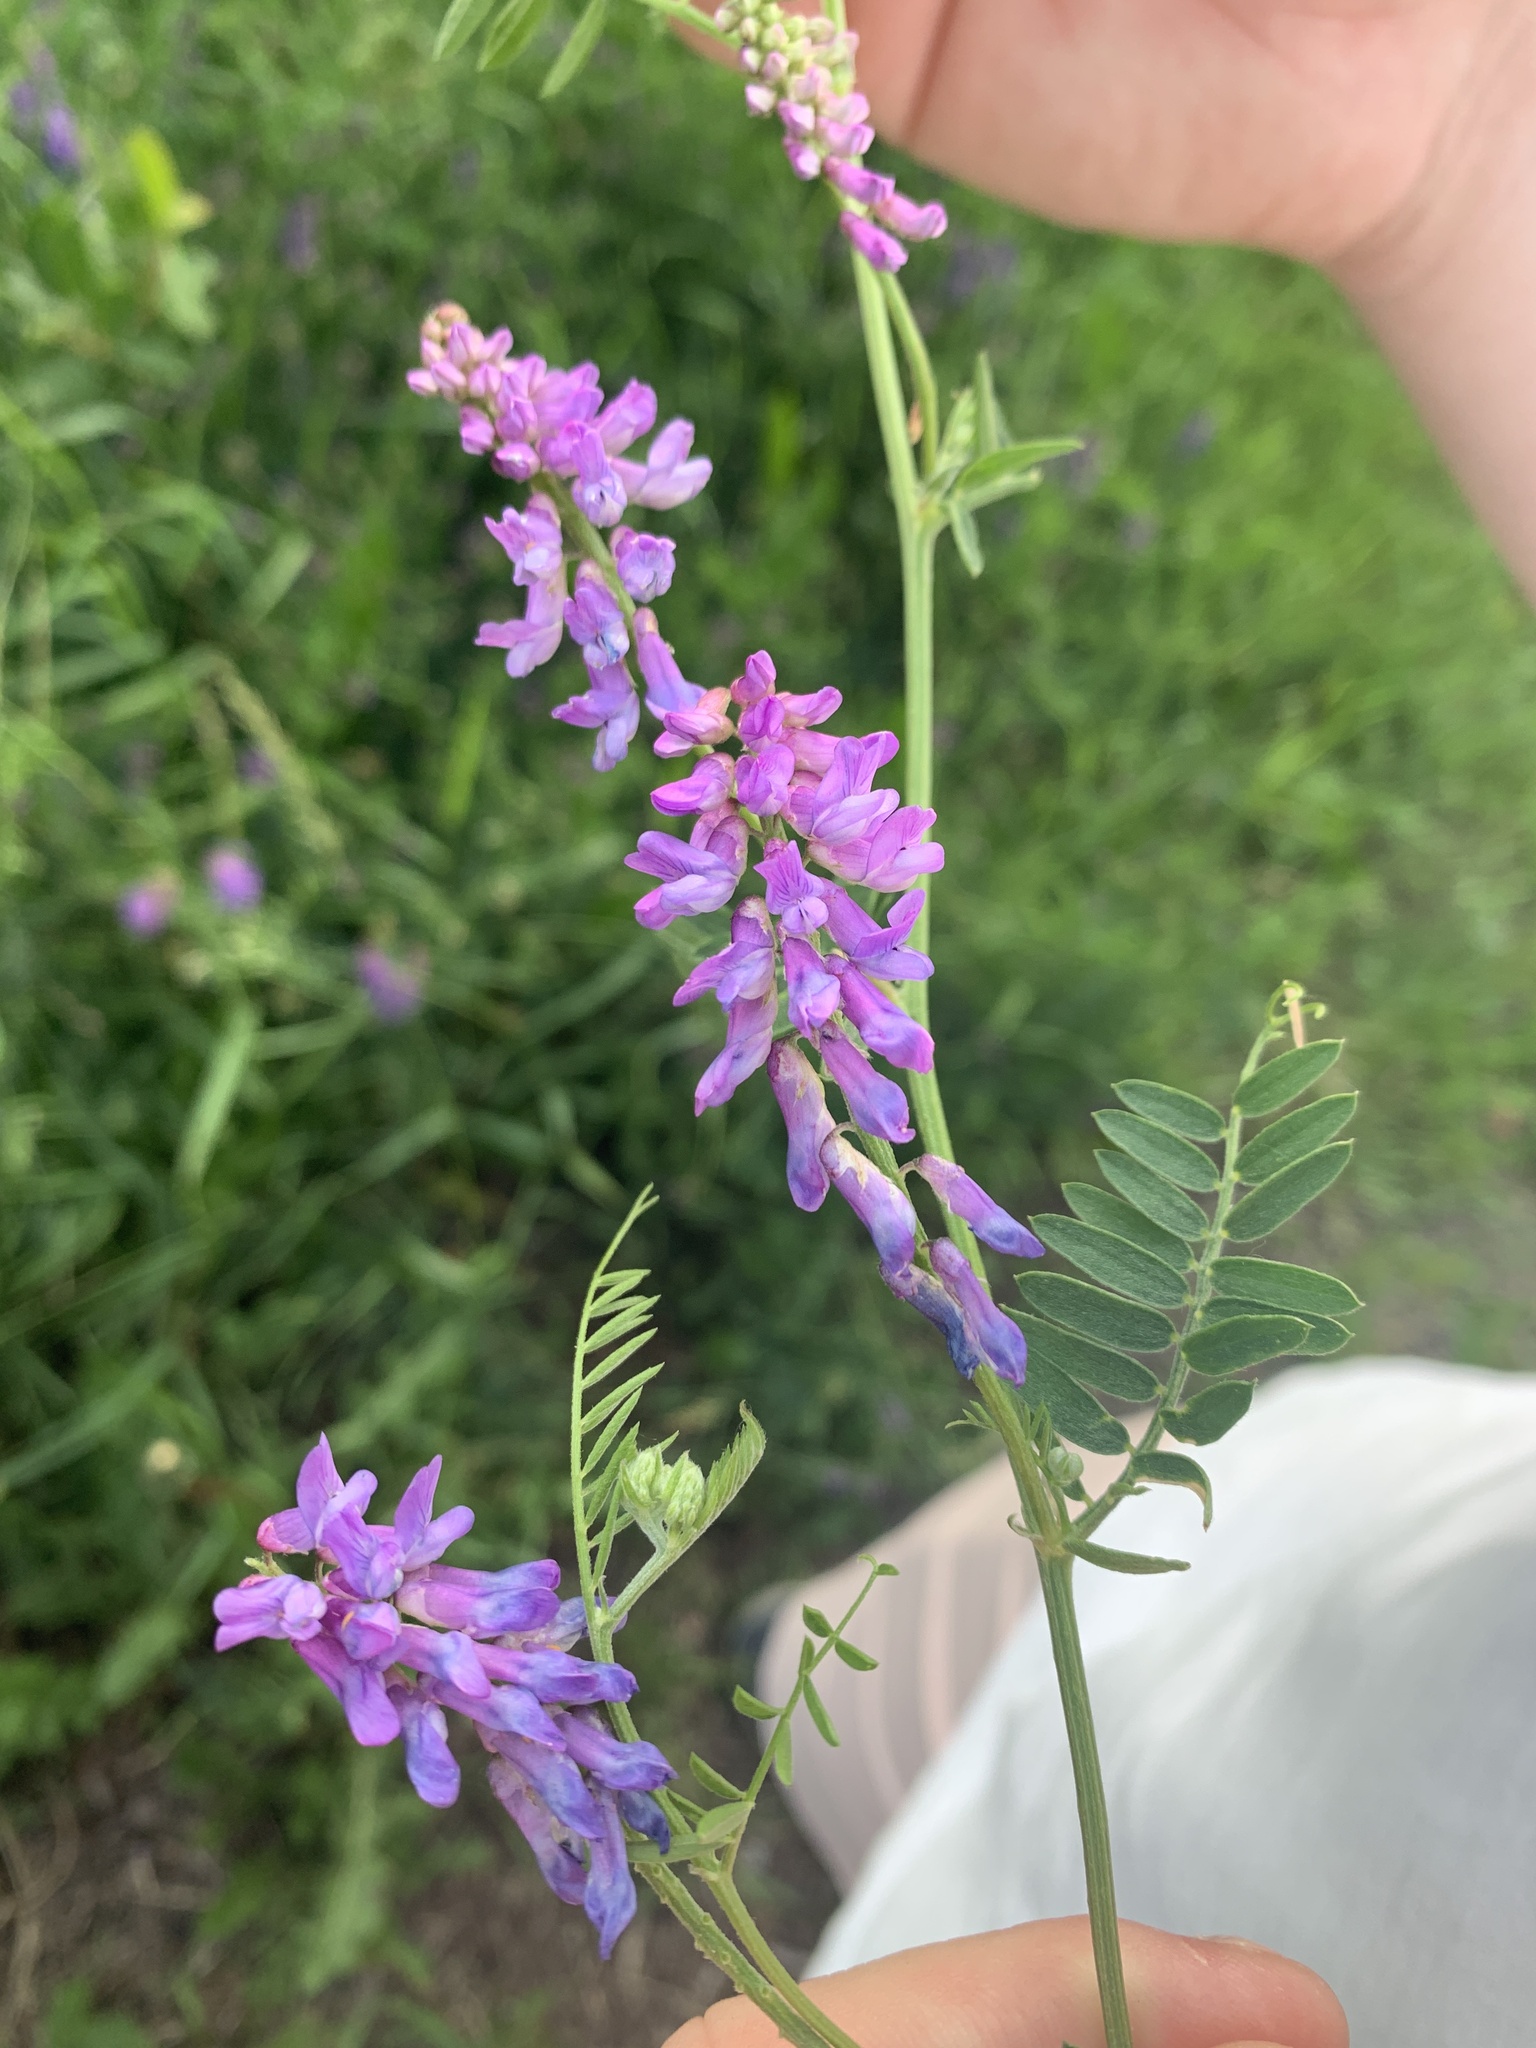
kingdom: Plantae
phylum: Tracheophyta
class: Magnoliopsida
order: Fabales
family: Fabaceae
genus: Vicia
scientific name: Vicia cracca
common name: Bird vetch
